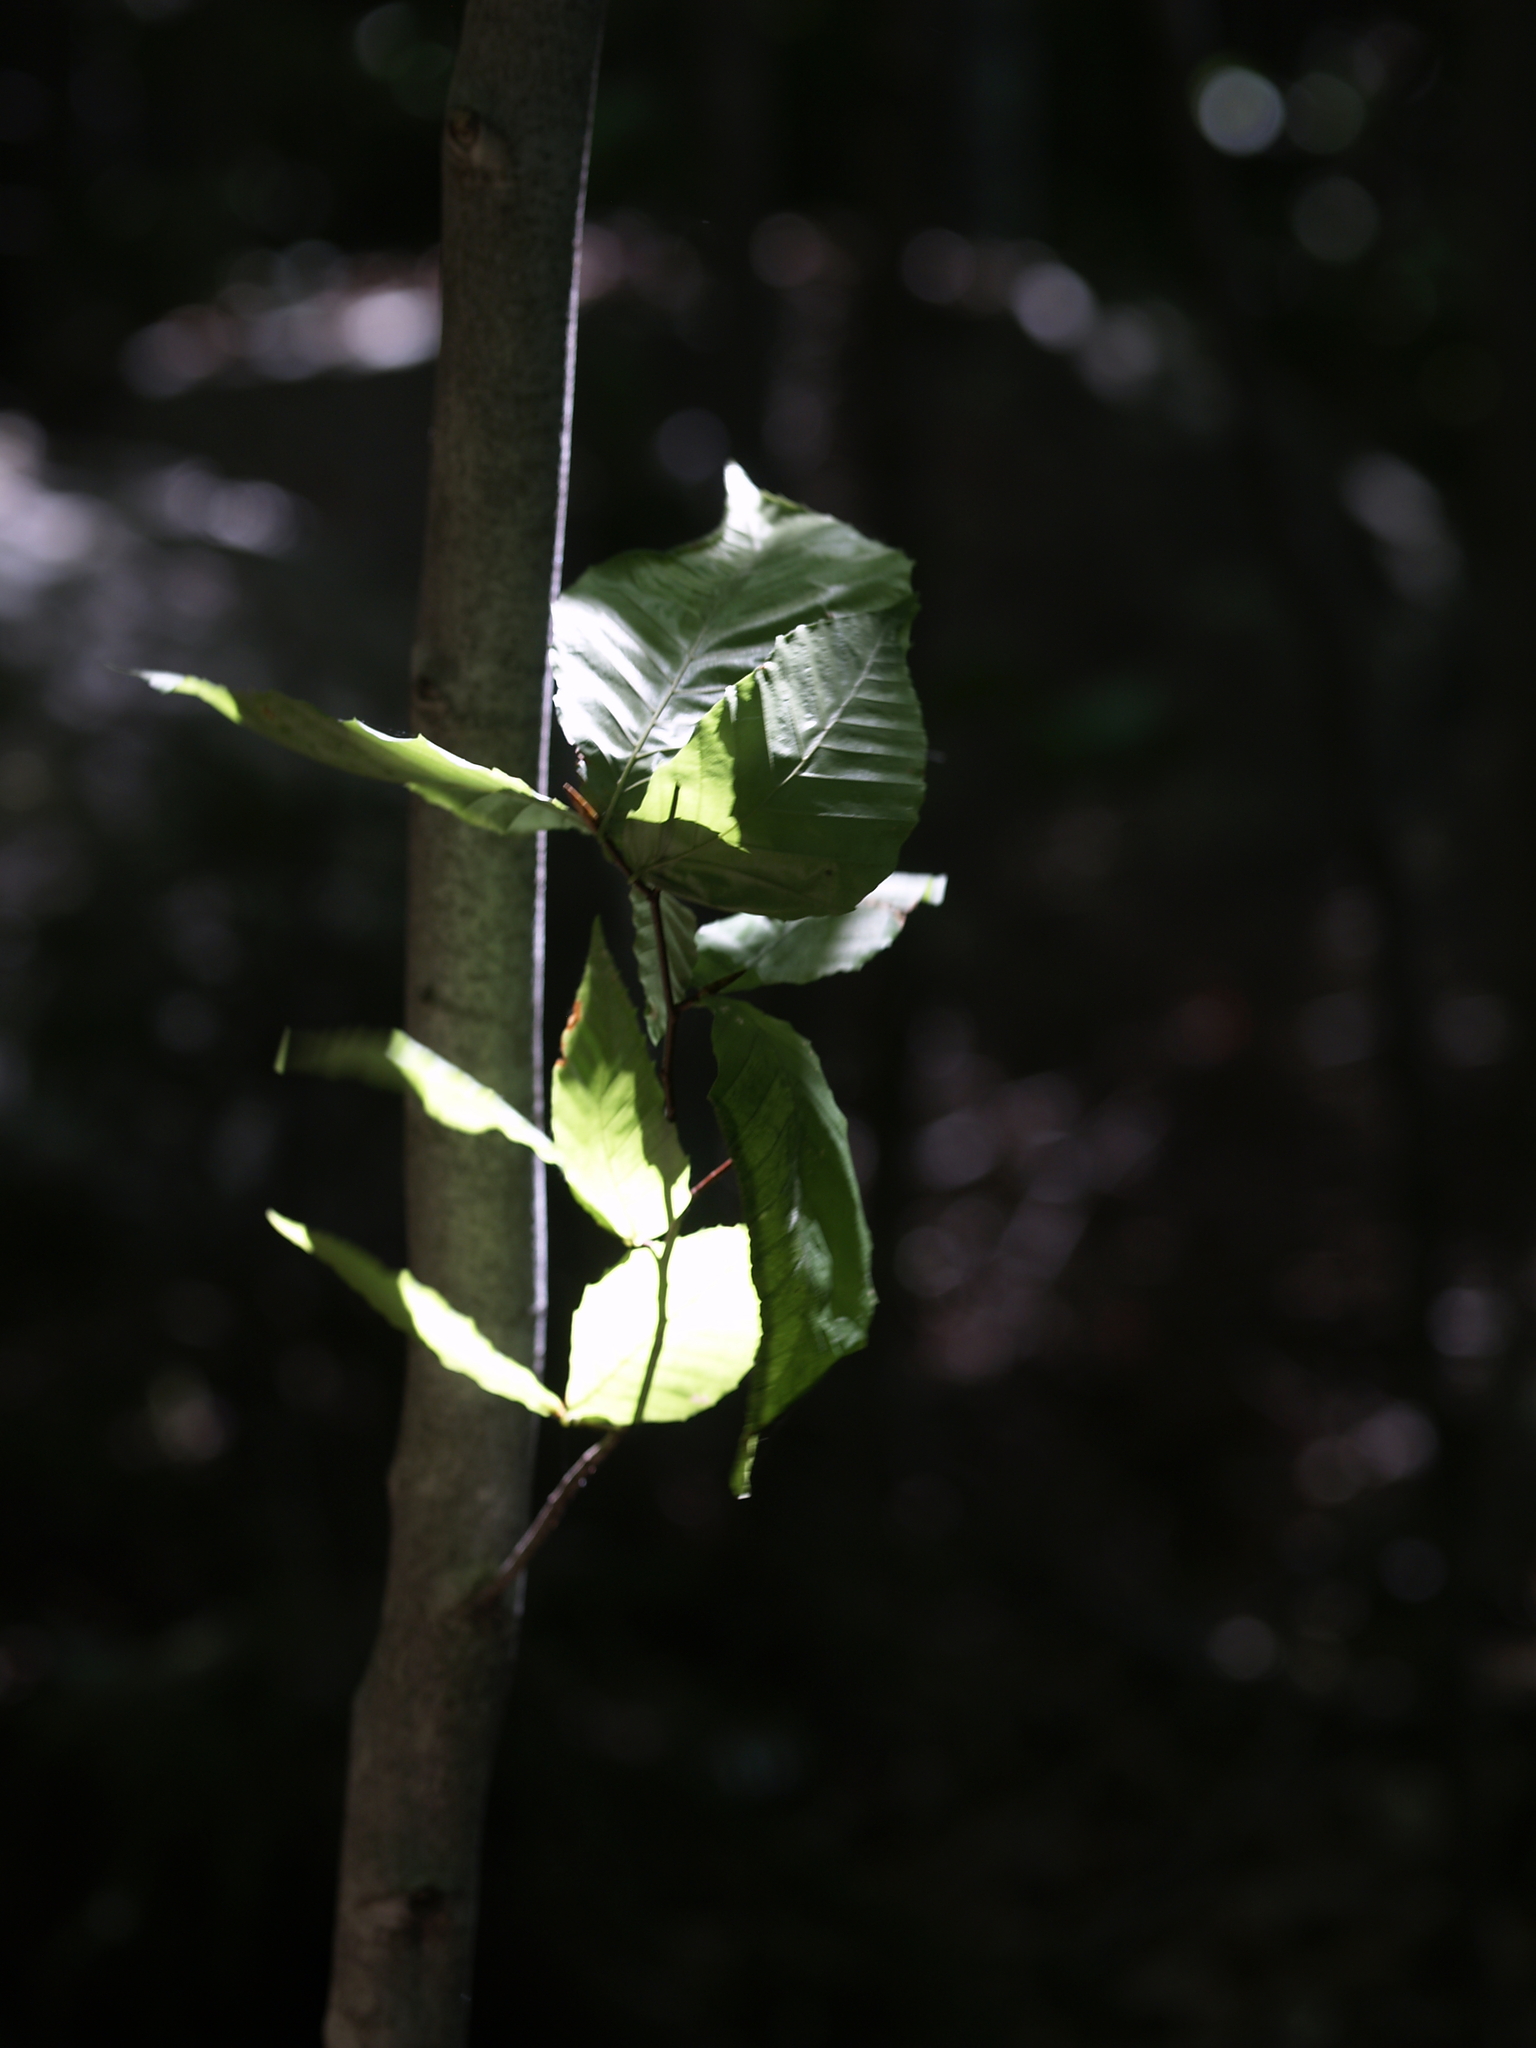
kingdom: Plantae
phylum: Tracheophyta
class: Magnoliopsida
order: Fagales
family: Fagaceae
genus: Fagus
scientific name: Fagus grandifolia
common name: American beech
